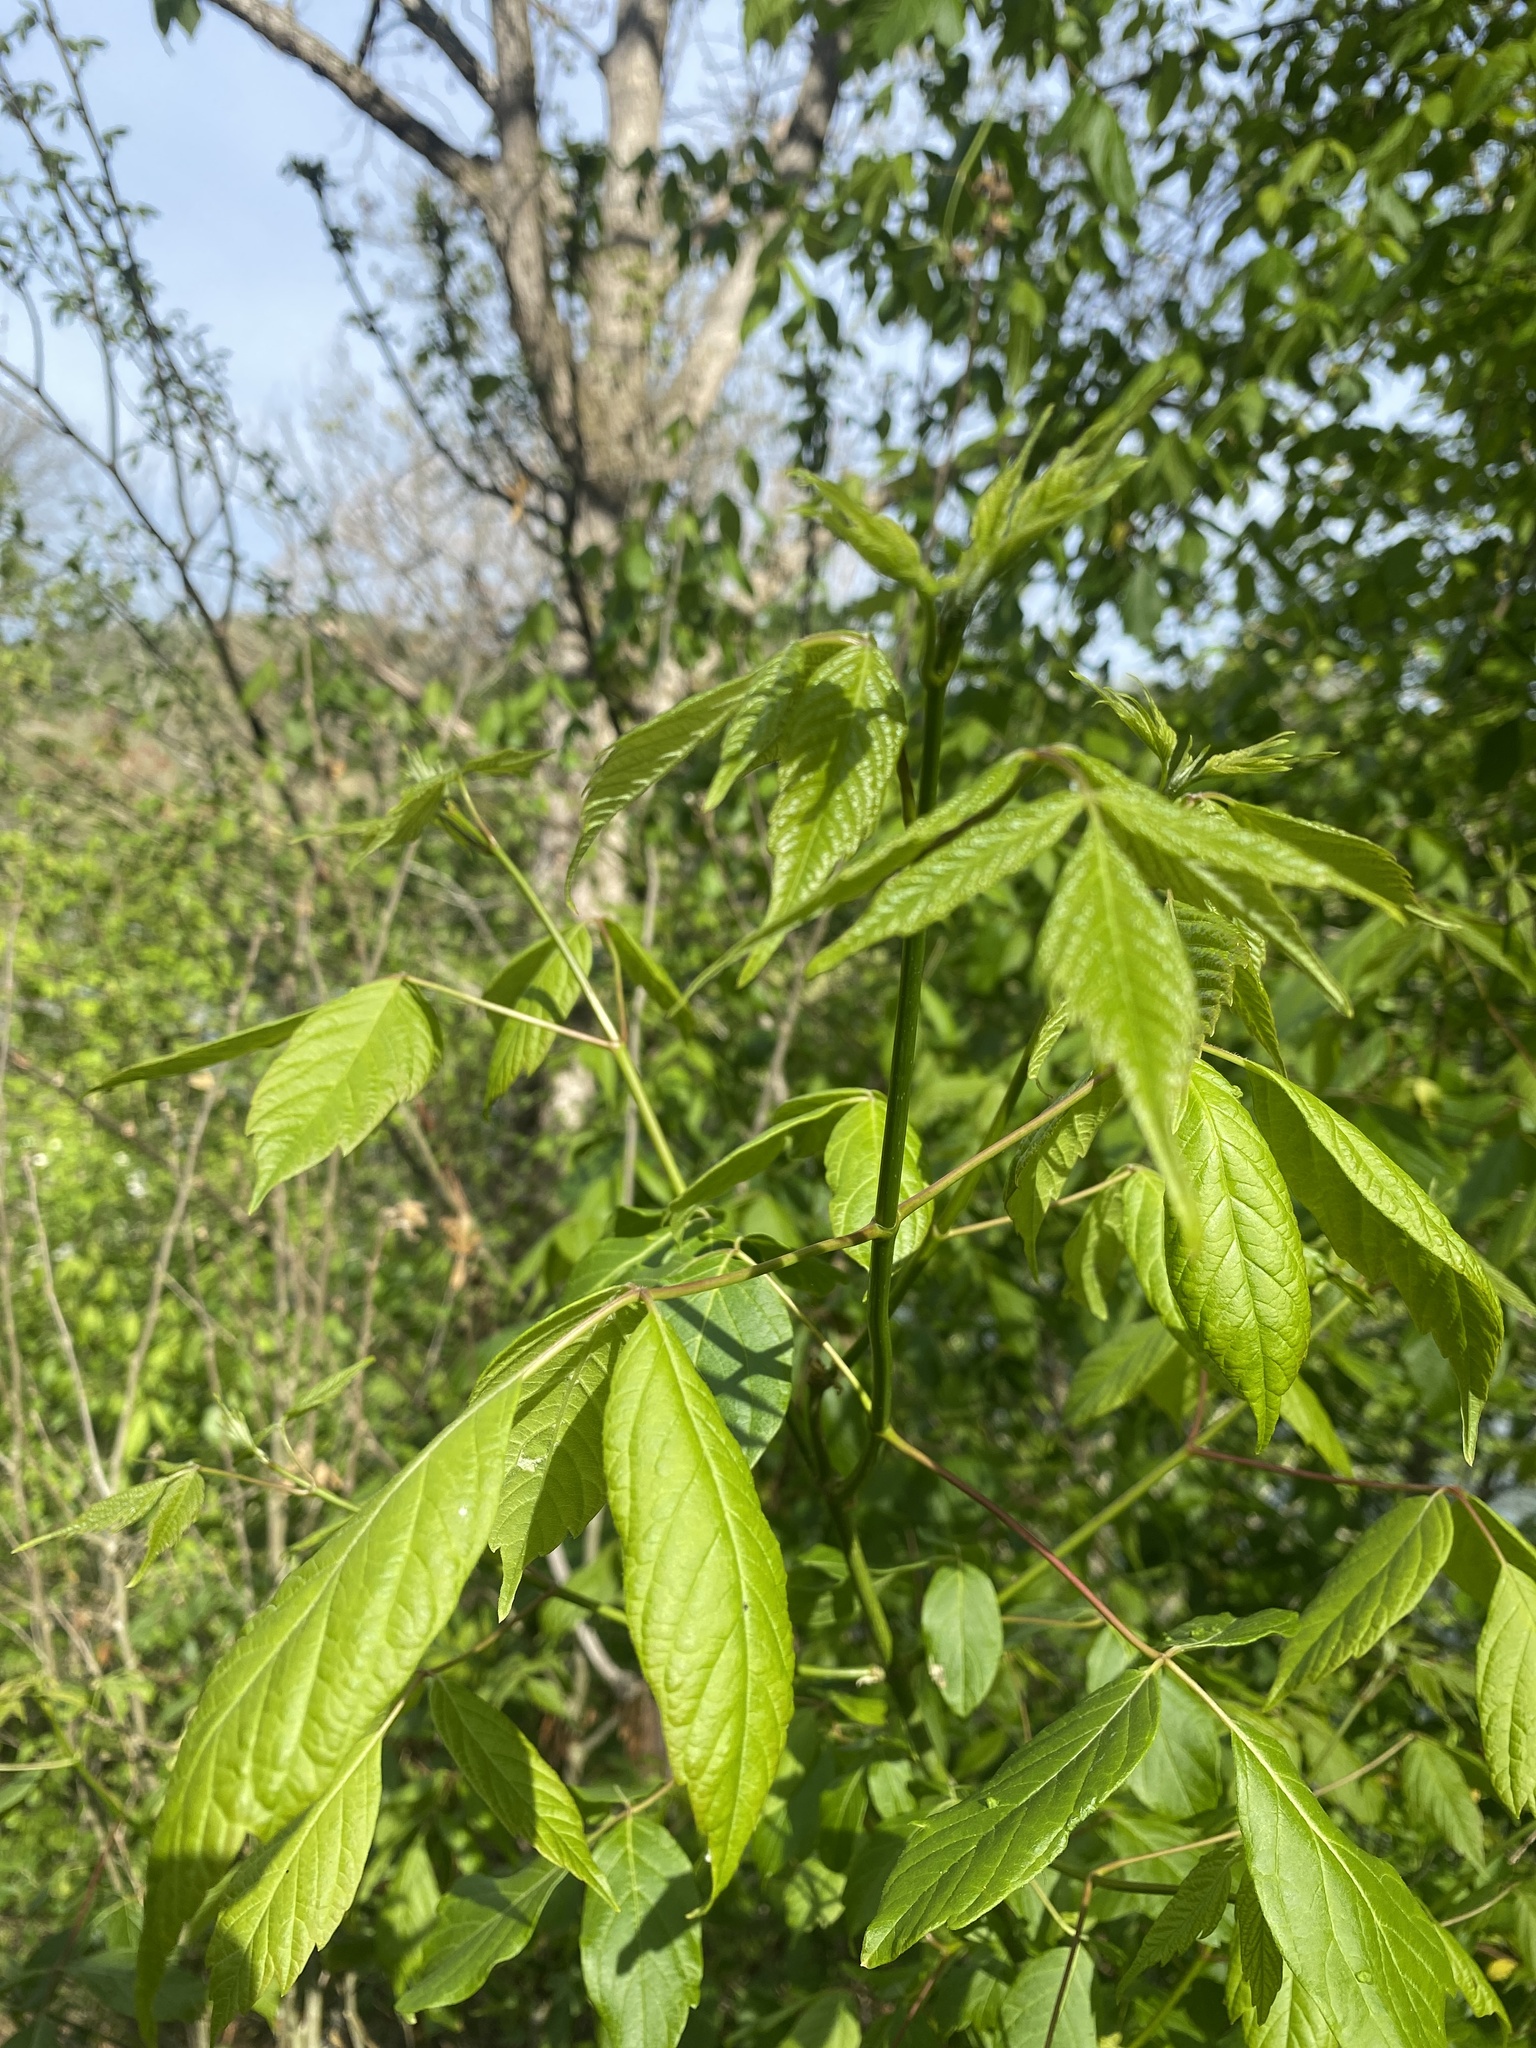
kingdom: Plantae
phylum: Tracheophyta
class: Magnoliopsida
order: Sapindales
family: Sapindaceae
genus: Acer
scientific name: Acer negundo
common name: Ashleaf maple
